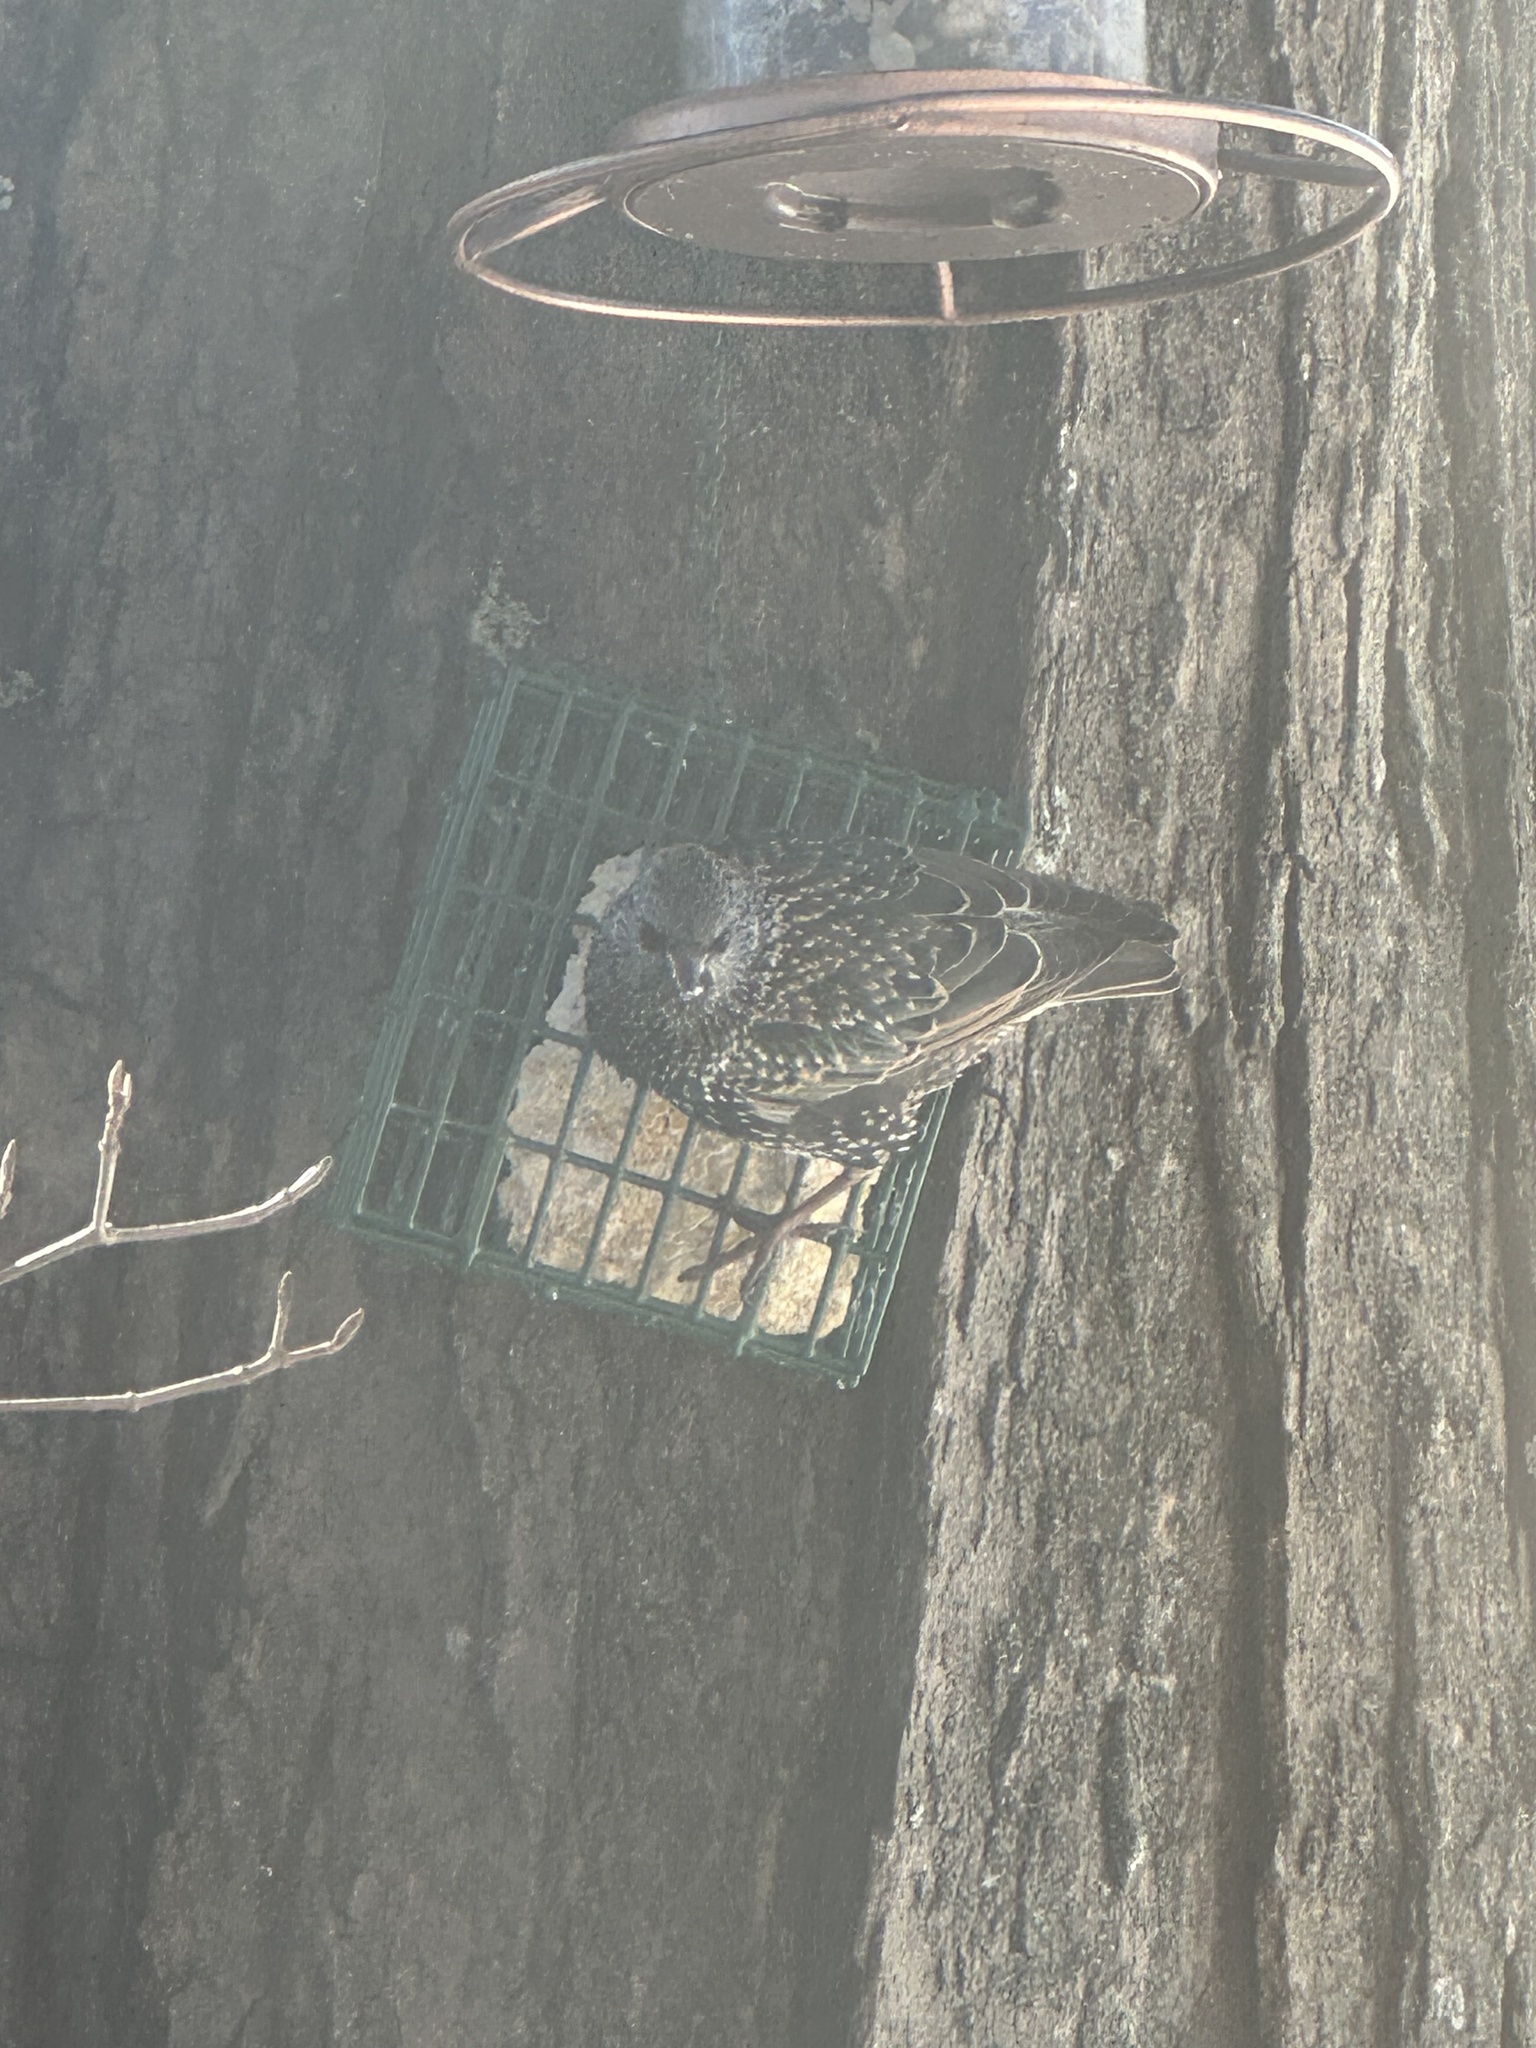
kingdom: Animalia
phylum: Chordata
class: Aves
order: Passeriformes
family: Sturnidae
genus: Sturnus
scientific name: Sturnus vulgaris
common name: Common starling
